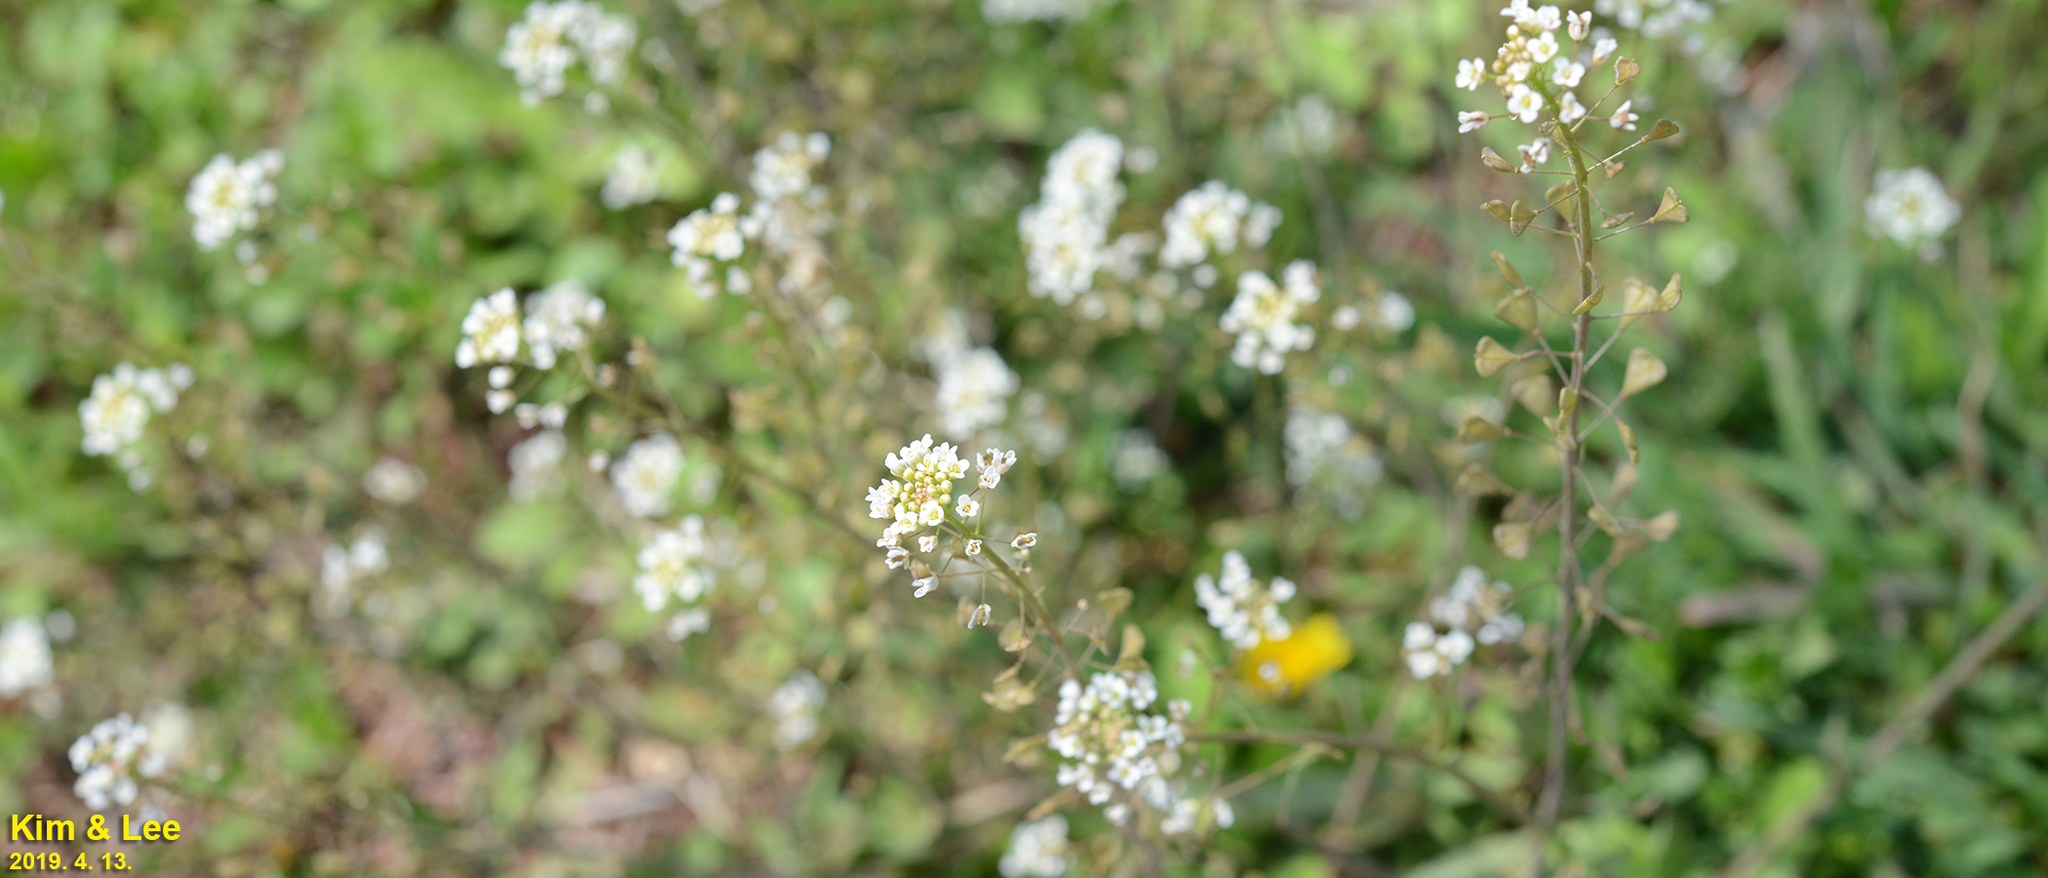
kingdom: Plantae
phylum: Tracheophyta
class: Magnoliopsida
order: Brassicales
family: Brassicaceae
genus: Capsella
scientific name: Capsella bursa-pastoris
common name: Shepherd's purse
